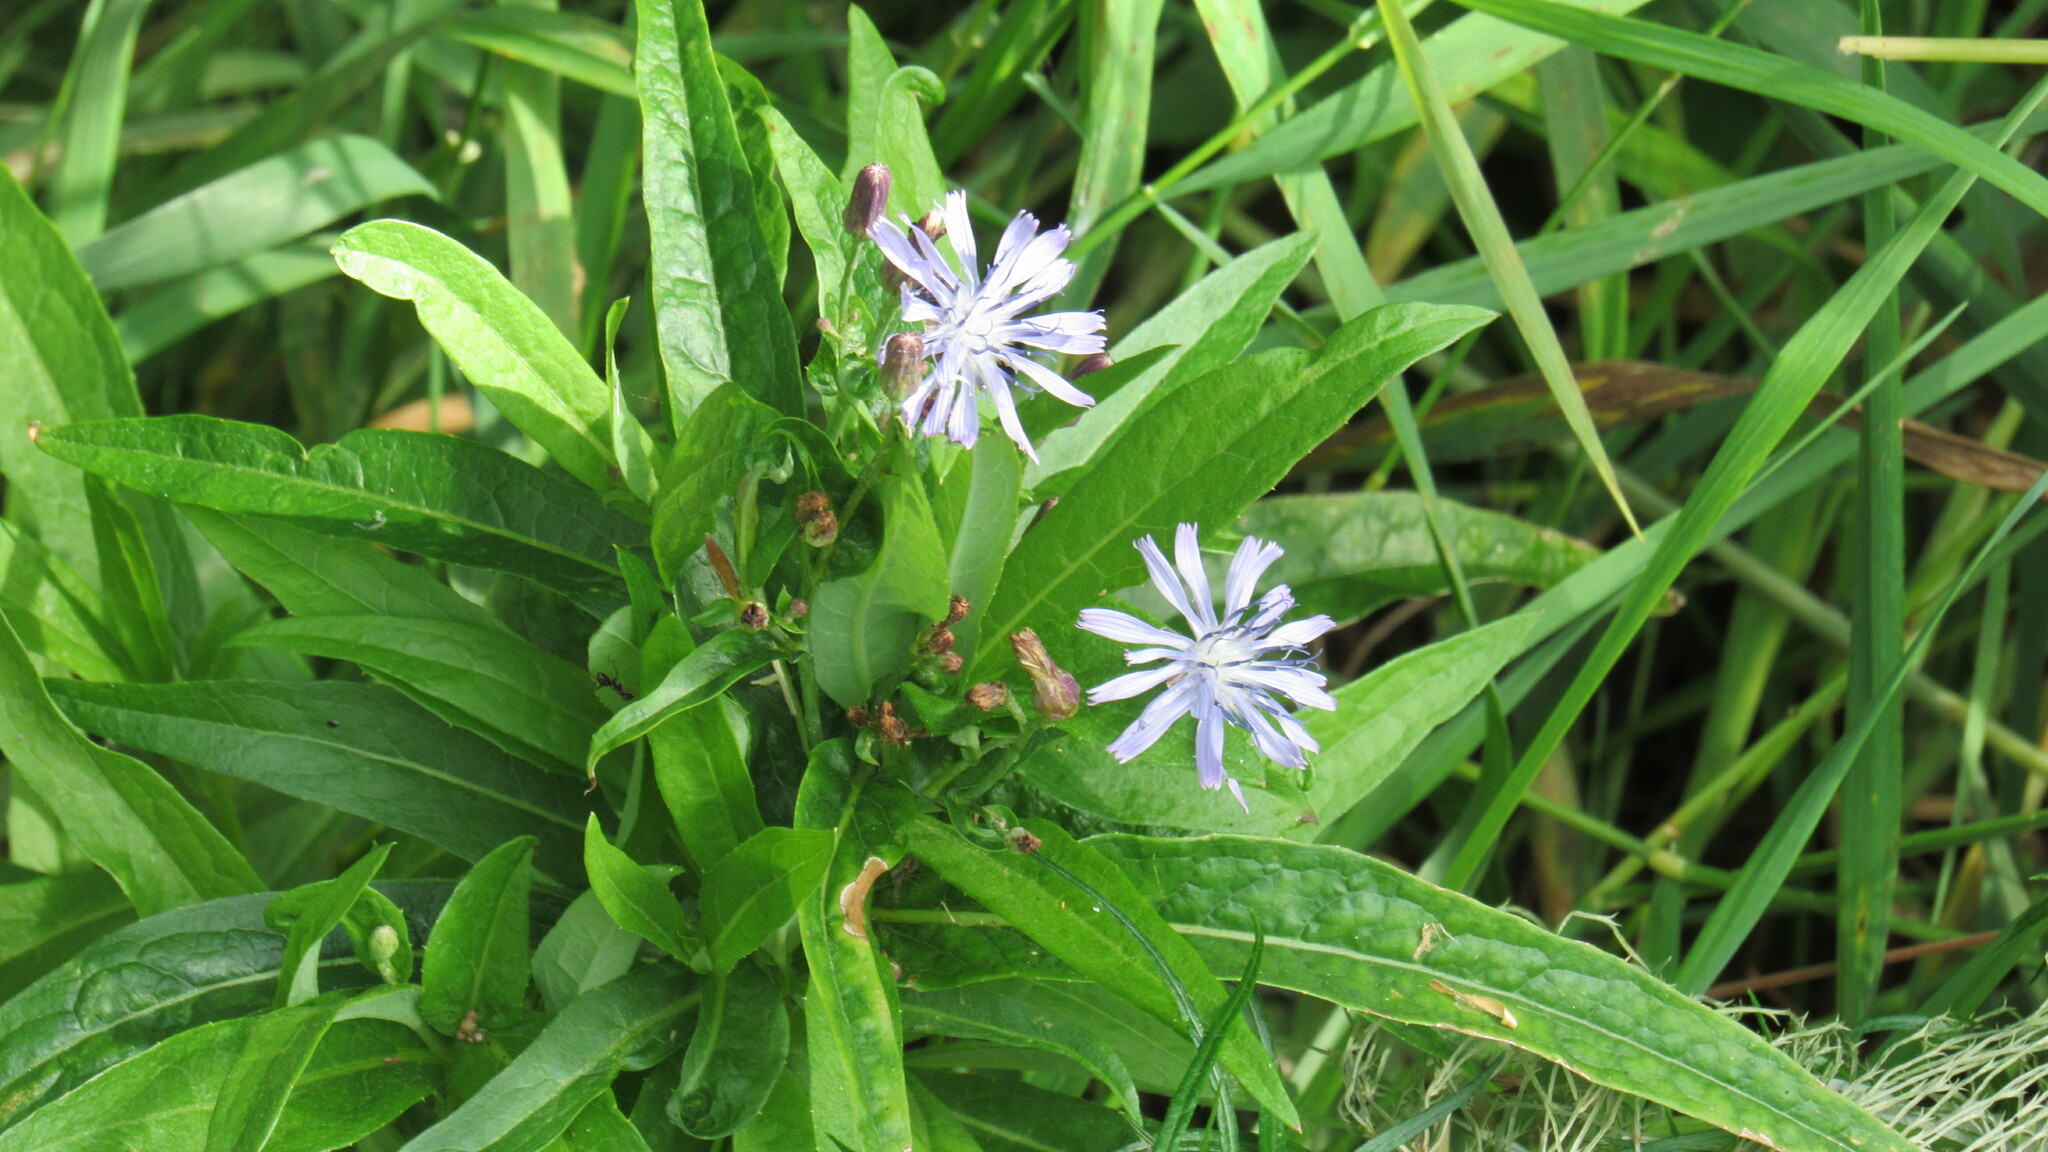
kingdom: Plantae
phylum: Tracheophyta
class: Magnoliopsida
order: Asterales
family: Asteraceae
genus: Lactuca
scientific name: Lactuca sibirica
